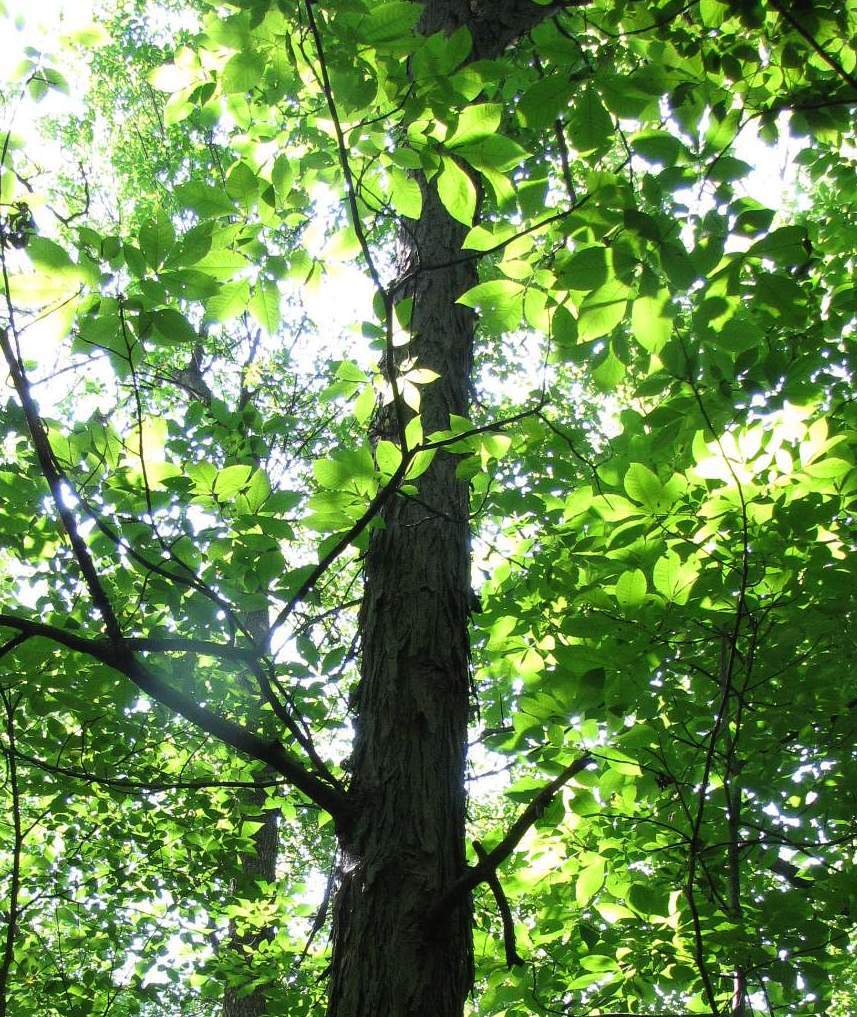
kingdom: Plantae
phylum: Tracheophyta
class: Magnoliopsida
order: Fagales
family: Juglandaceae
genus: Carya
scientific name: Carya ovata
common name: Shagbark hickory
